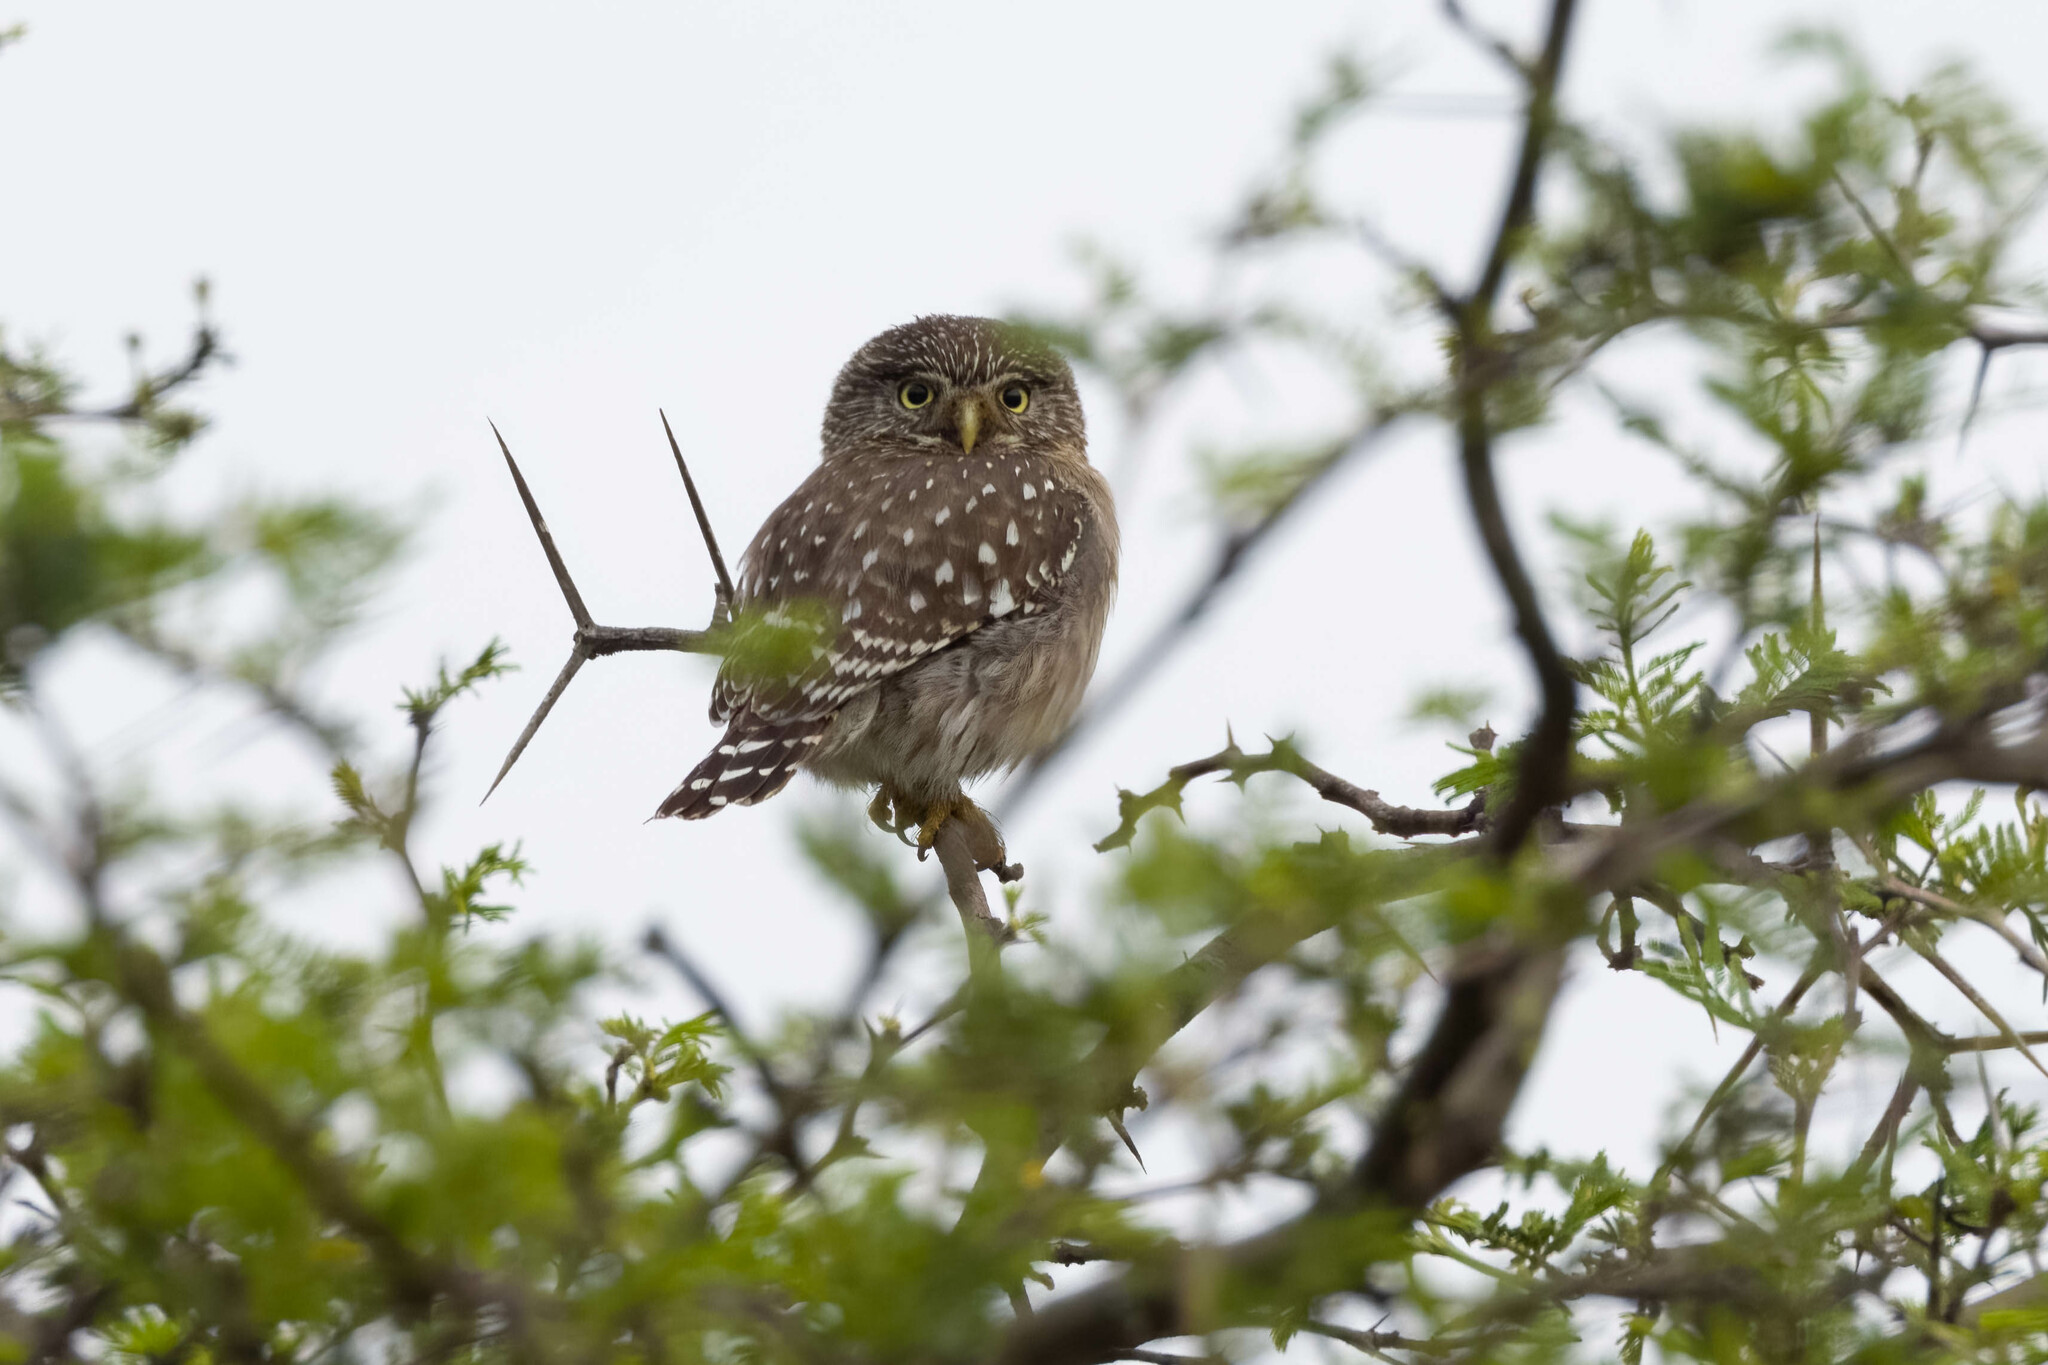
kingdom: Animalia
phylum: Chordata
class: Aves
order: Strigiformes
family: Strigidae
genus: Glaucidium
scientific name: Glaucidium peruanum
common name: Pacific pygmy owl
